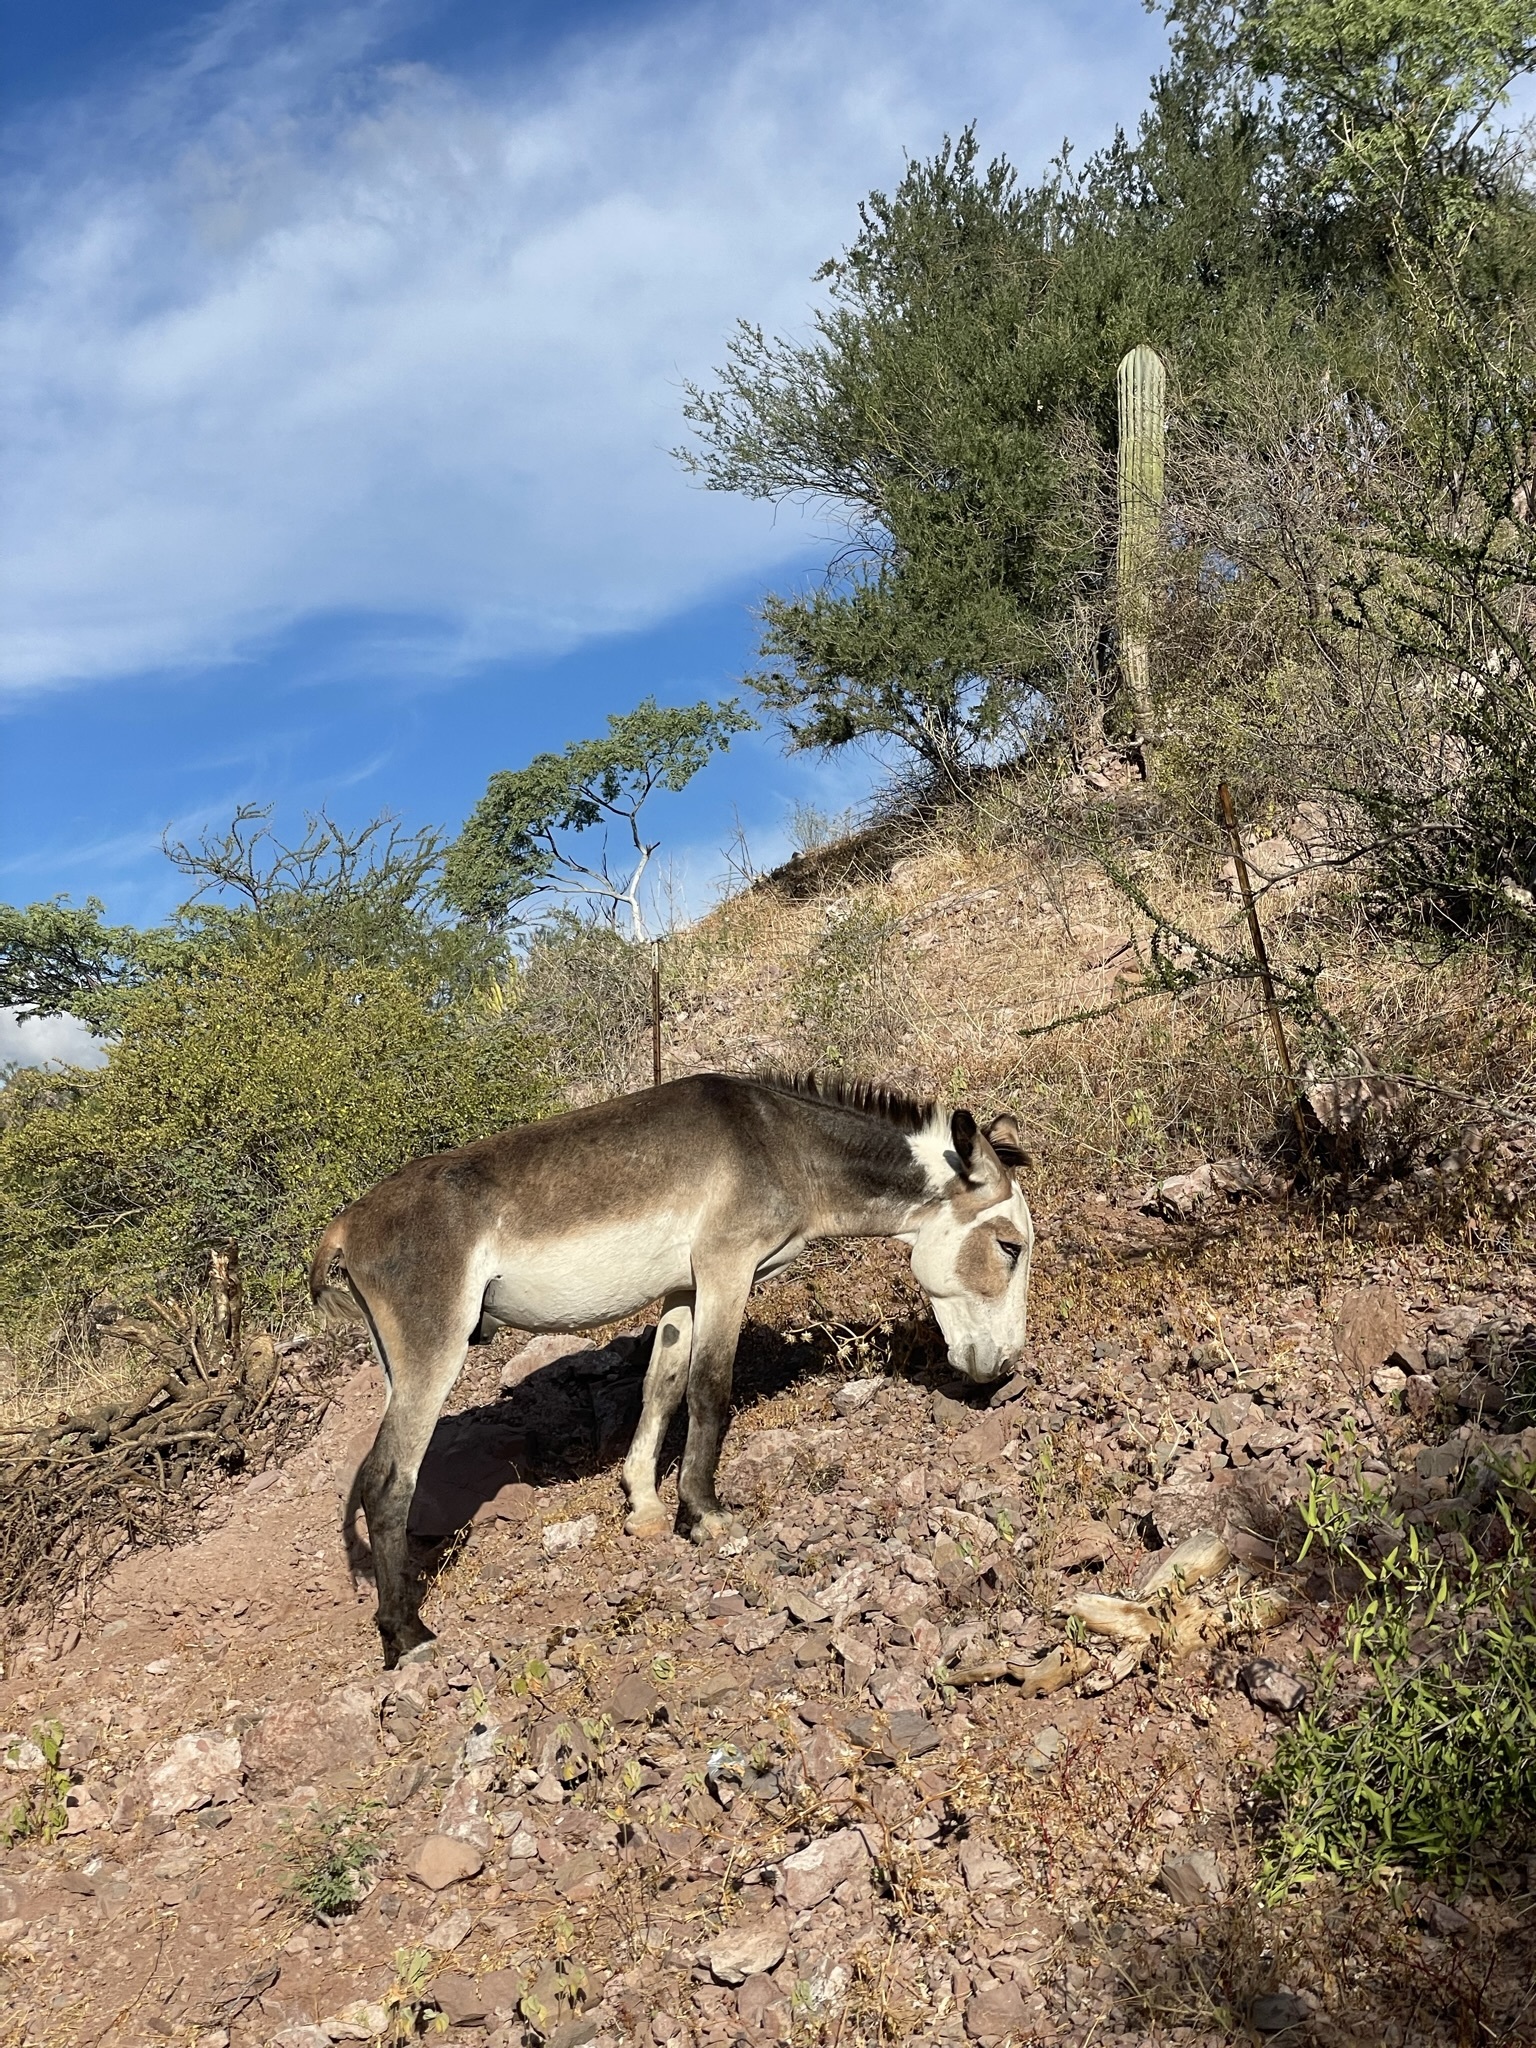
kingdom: Animalia
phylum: Chordata
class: Mammalia
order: Perissodactyla
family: Equidae
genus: Equus
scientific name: Equus asinus
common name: Ass
